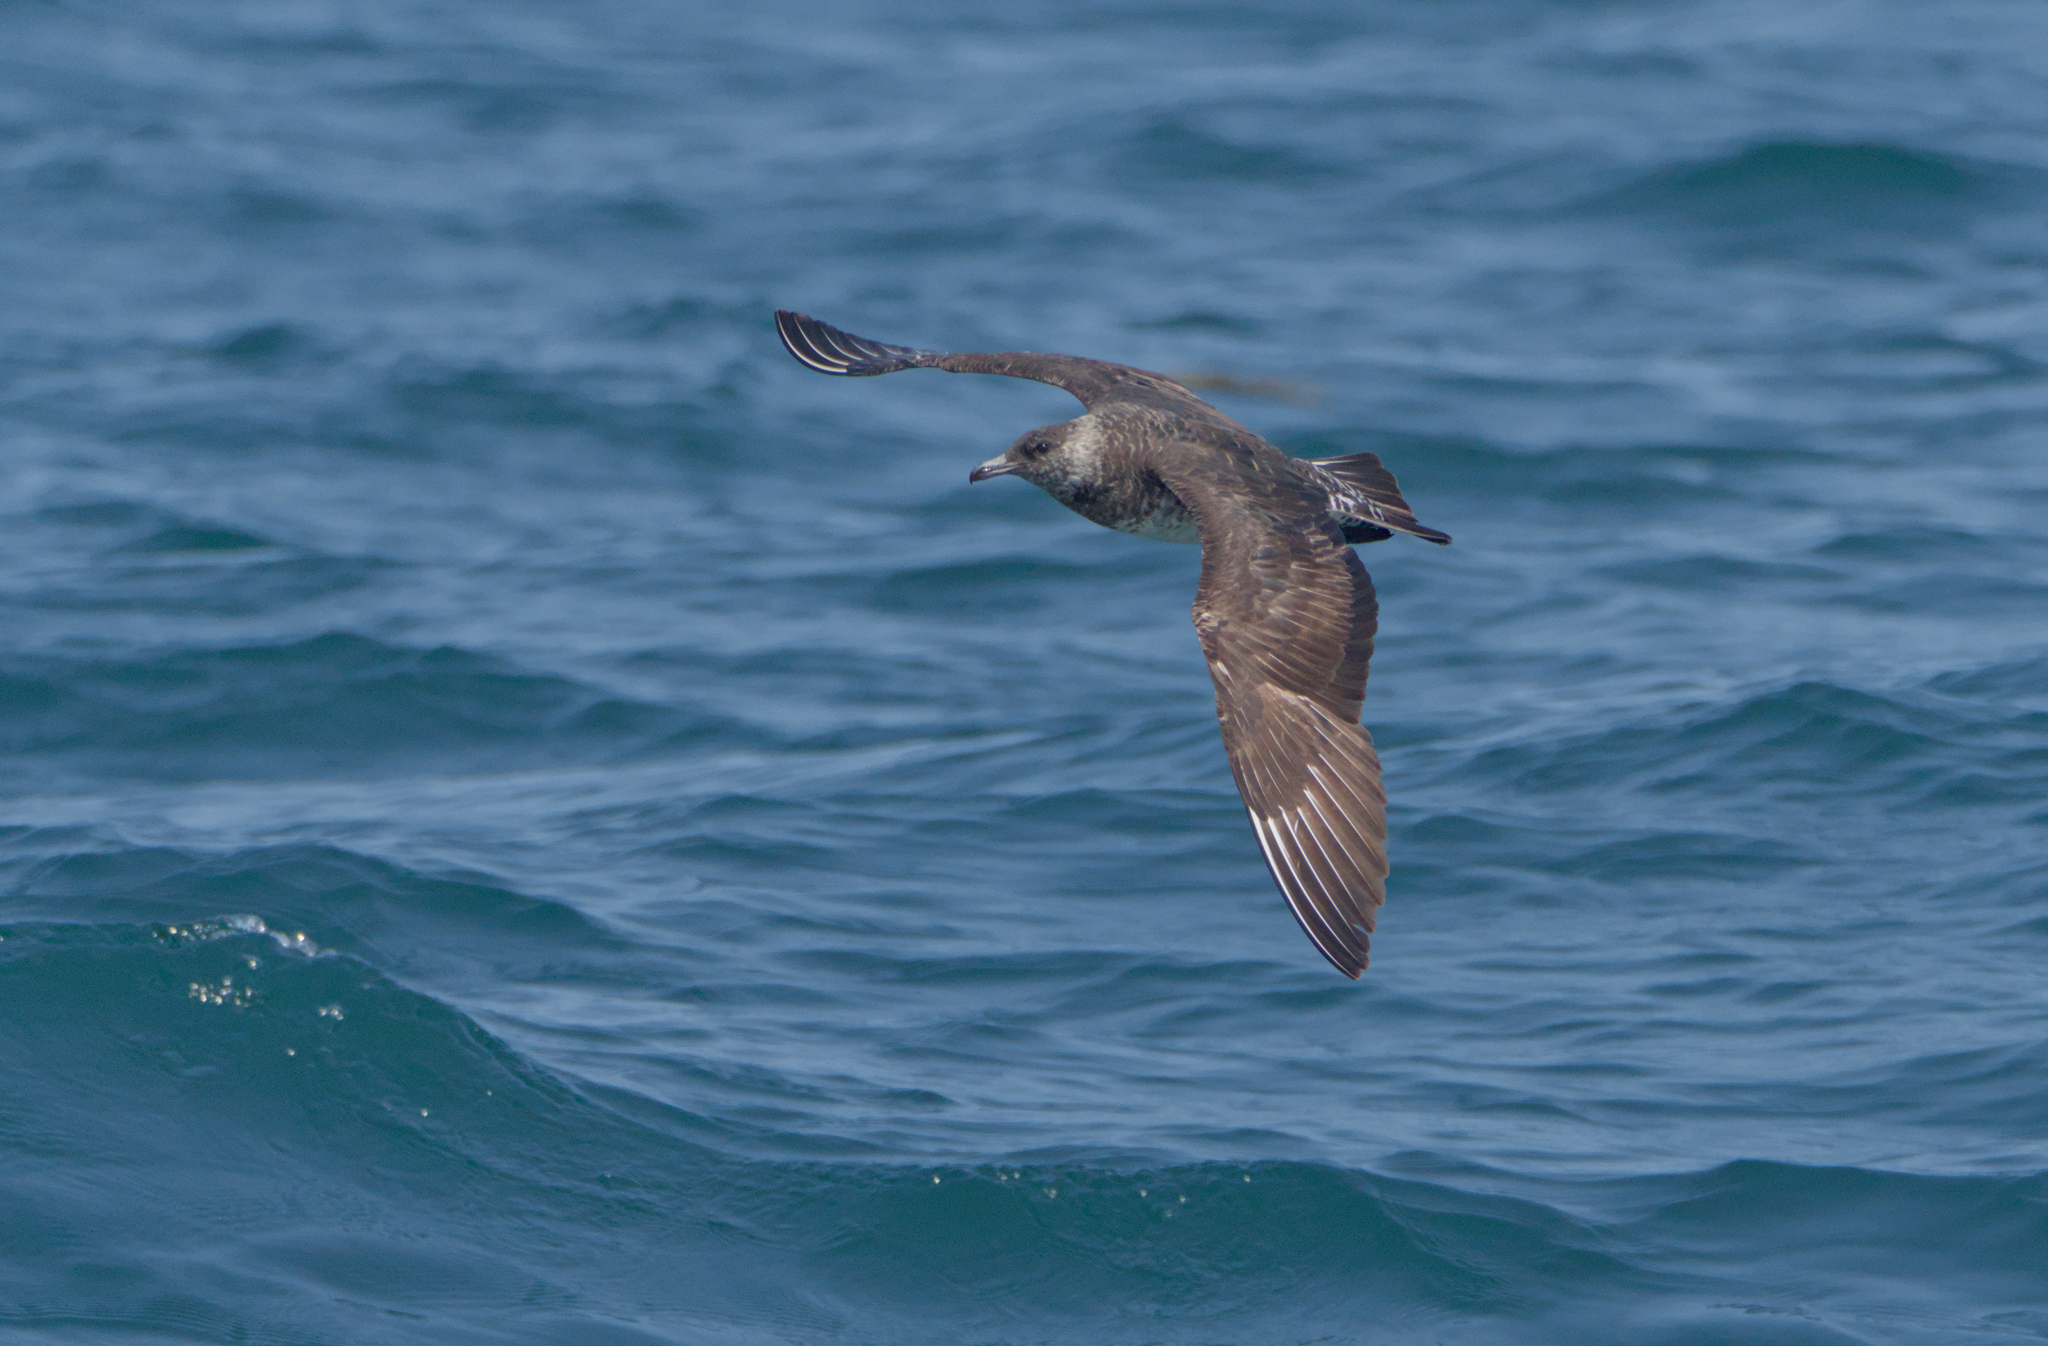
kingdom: Animalia
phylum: Chordata
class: Aves
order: Charadriiformes
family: Stercorariidae
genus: Stercorarius
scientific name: Stercorarius pomarinus
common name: Pomarine jaeger
